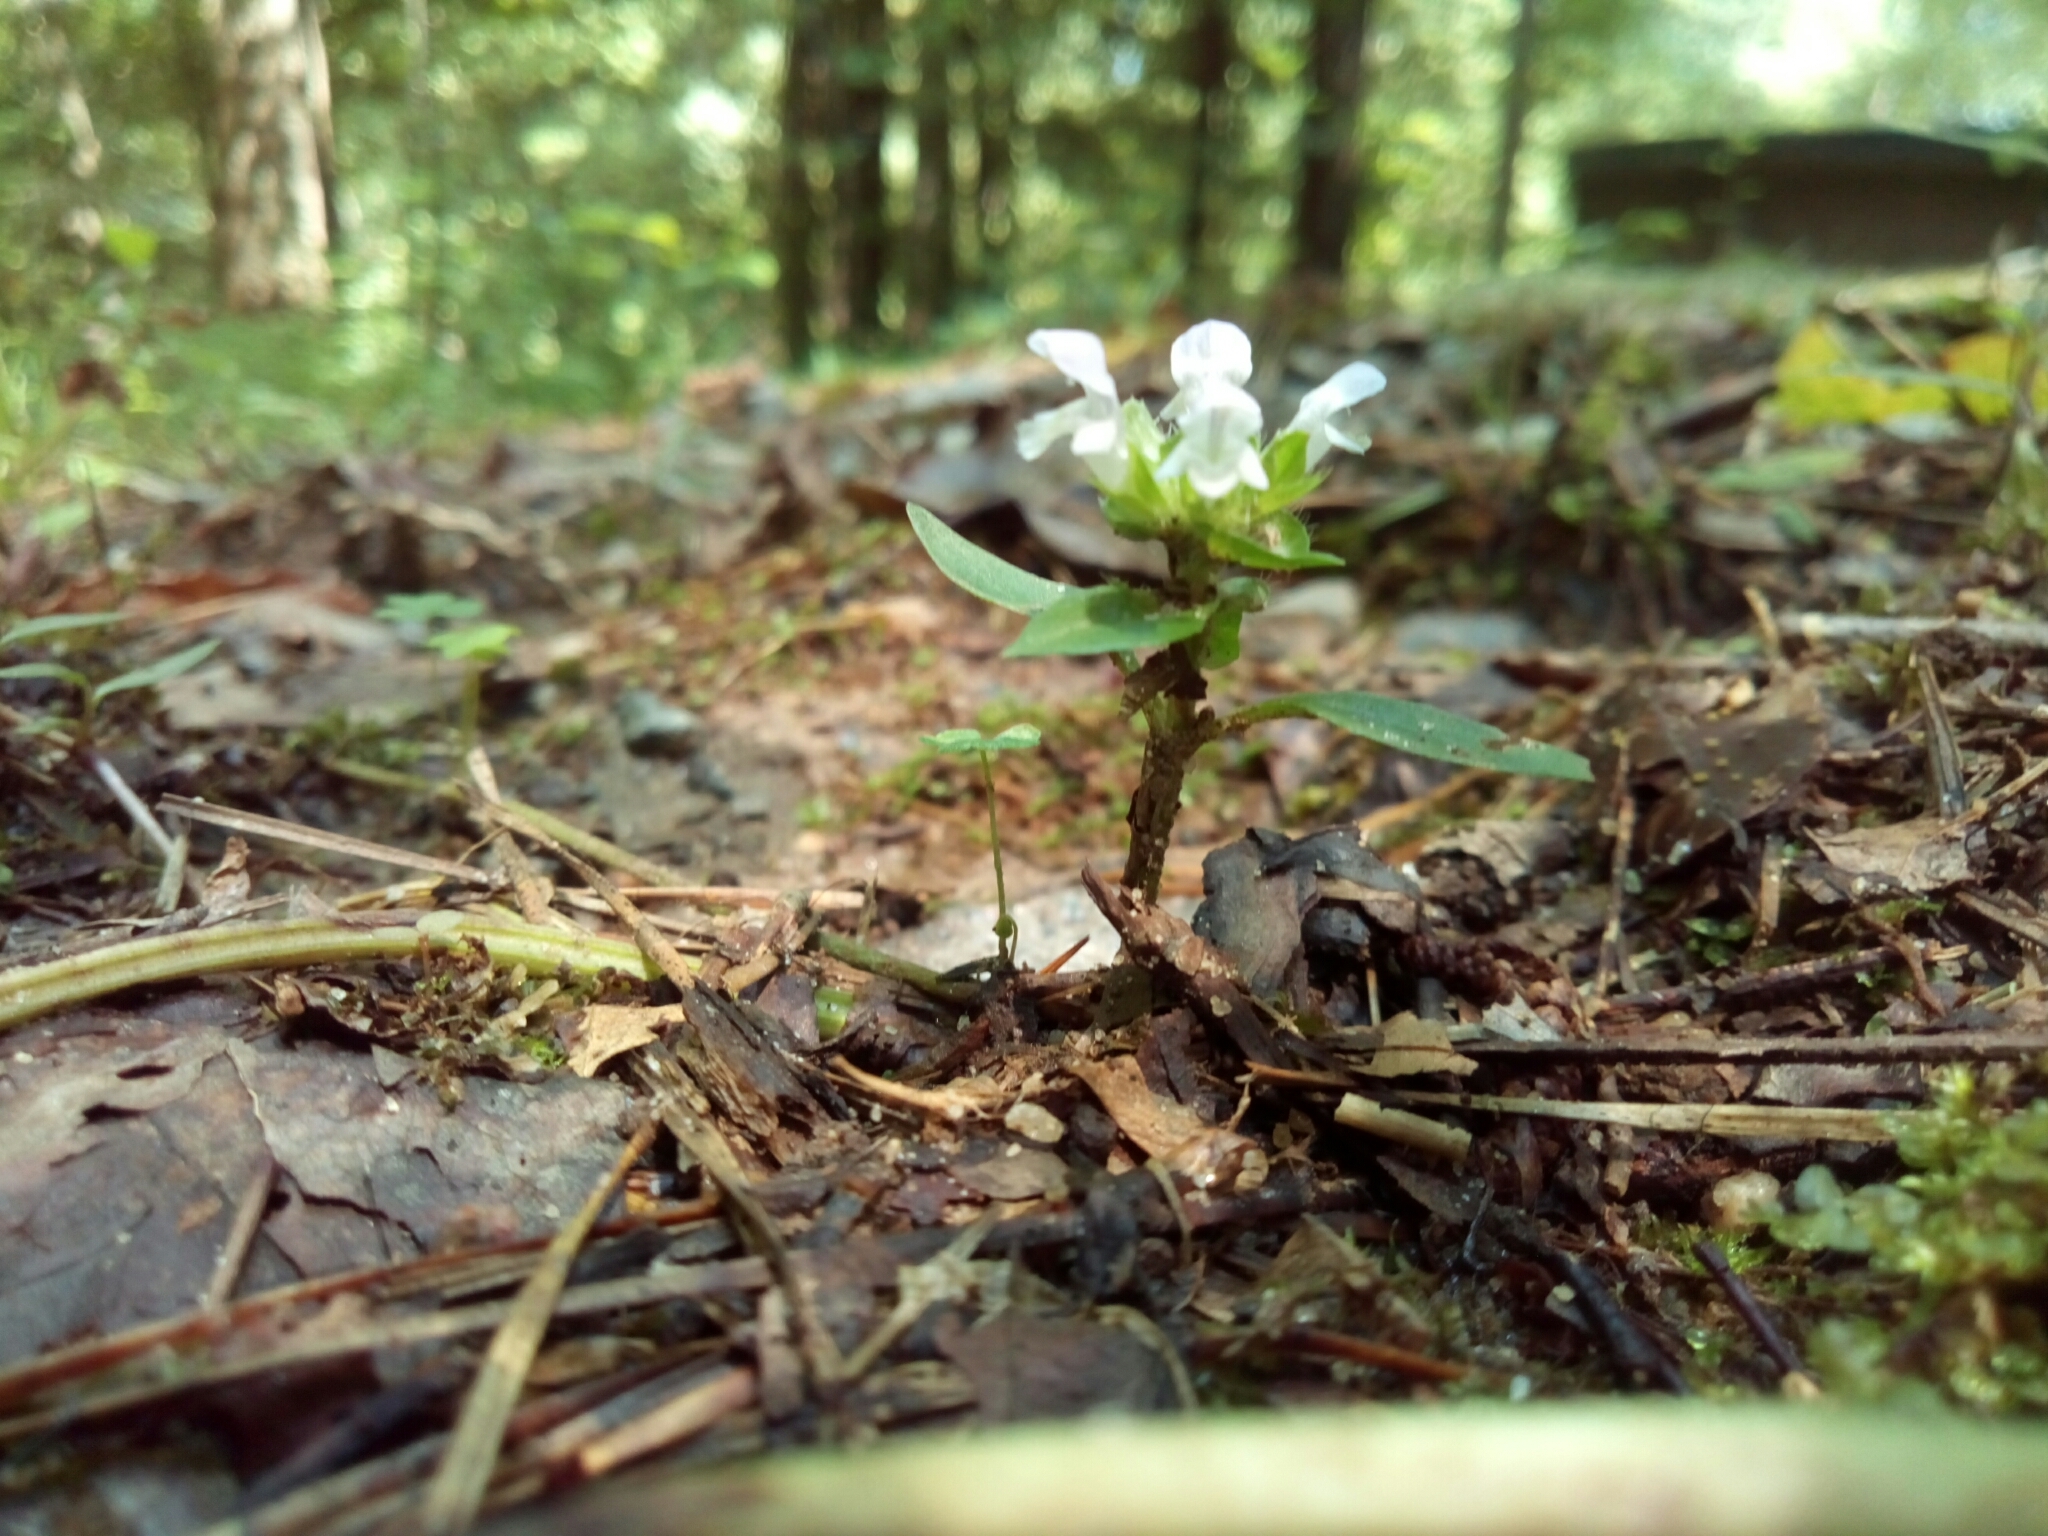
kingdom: Plantae
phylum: Tracheophyta
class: Magnoliopsida
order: Lamiales
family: Lamiaceae
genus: Prunella
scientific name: Prunella vulgaris
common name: Heal-all
